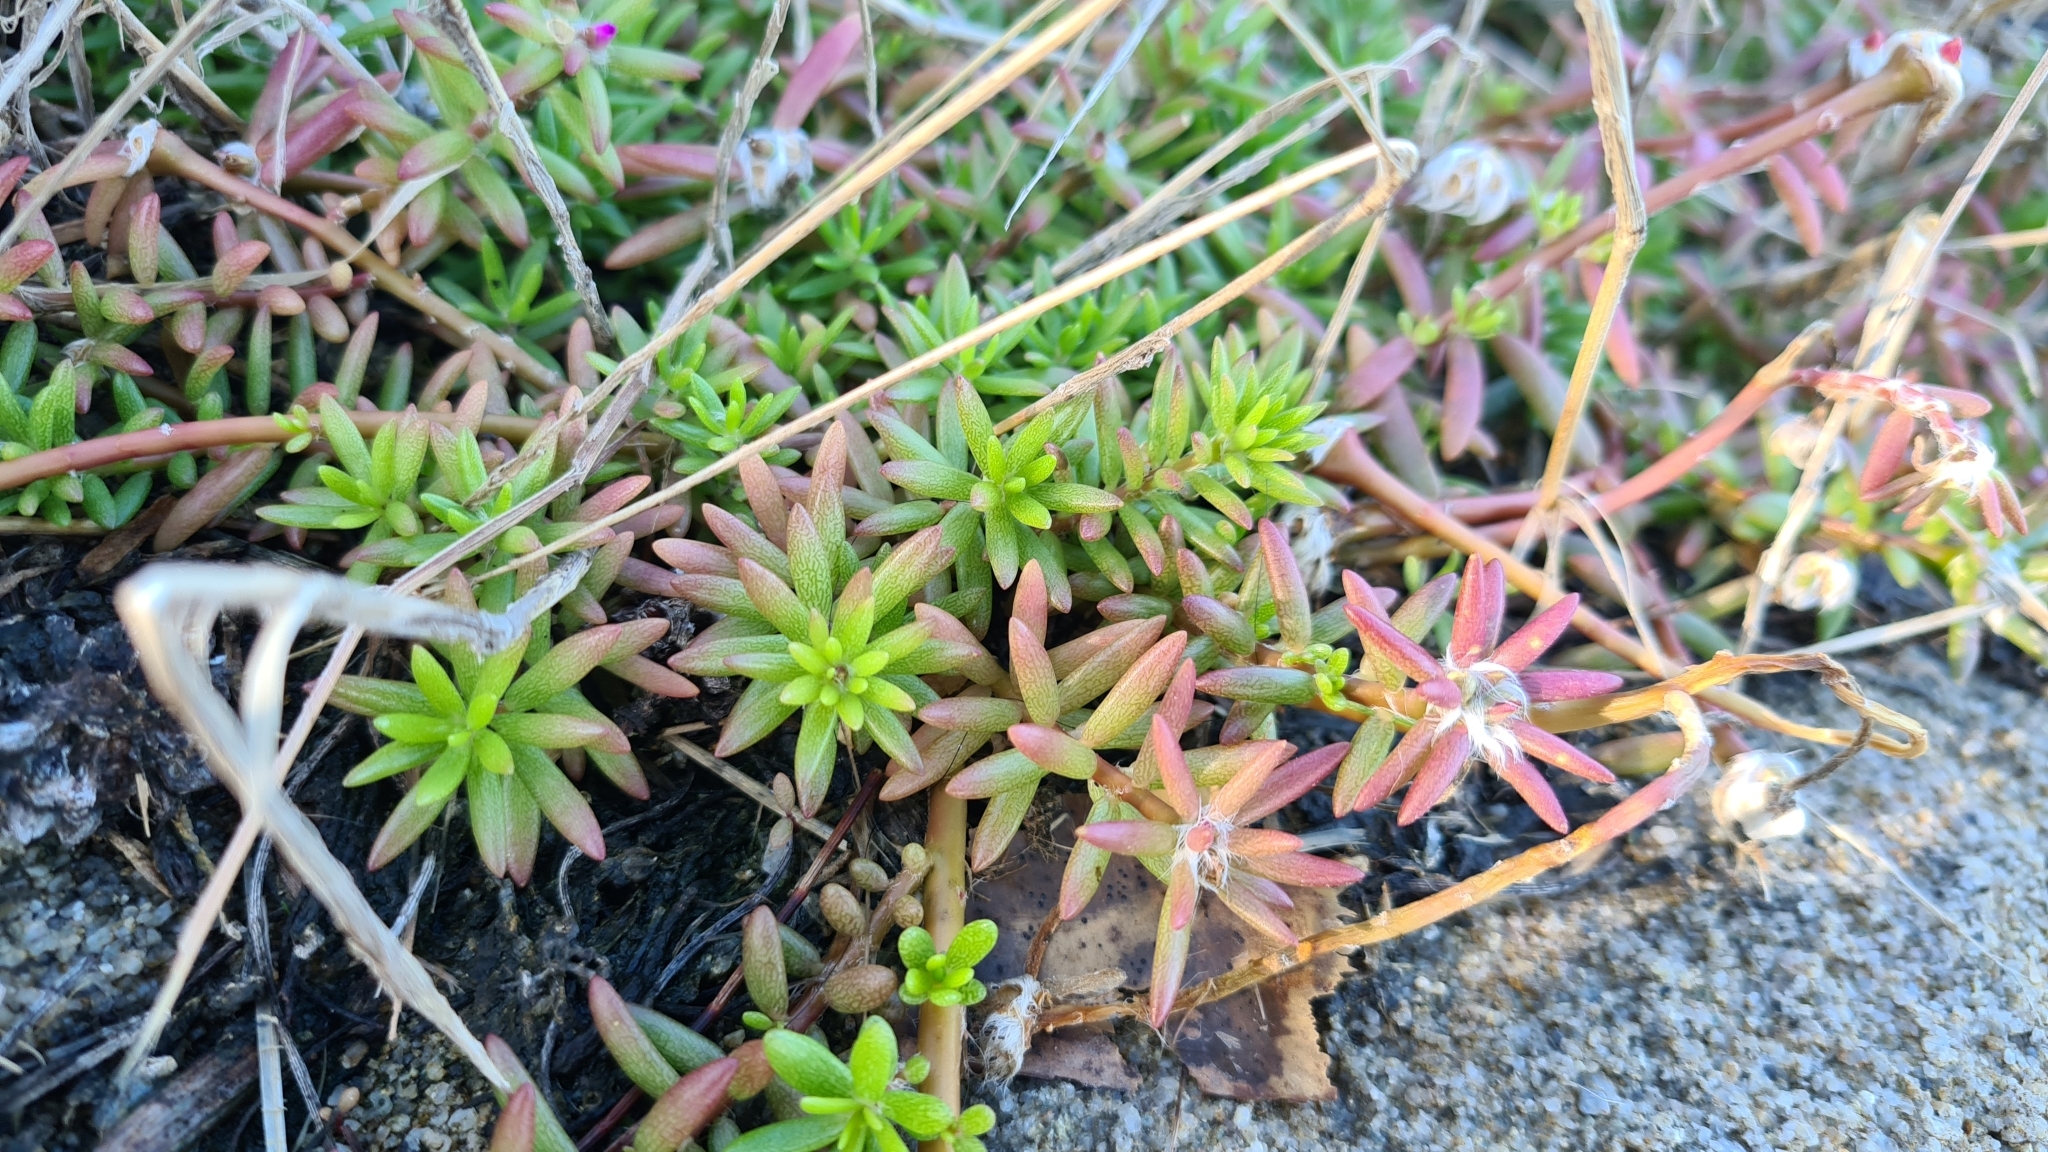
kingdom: Plantae
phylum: Tracheophyta
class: Magnoliopsida
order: Caryophyllales
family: Portulacaceae
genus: Portulaca
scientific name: Portulaca pilosa
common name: Kiss me quick
